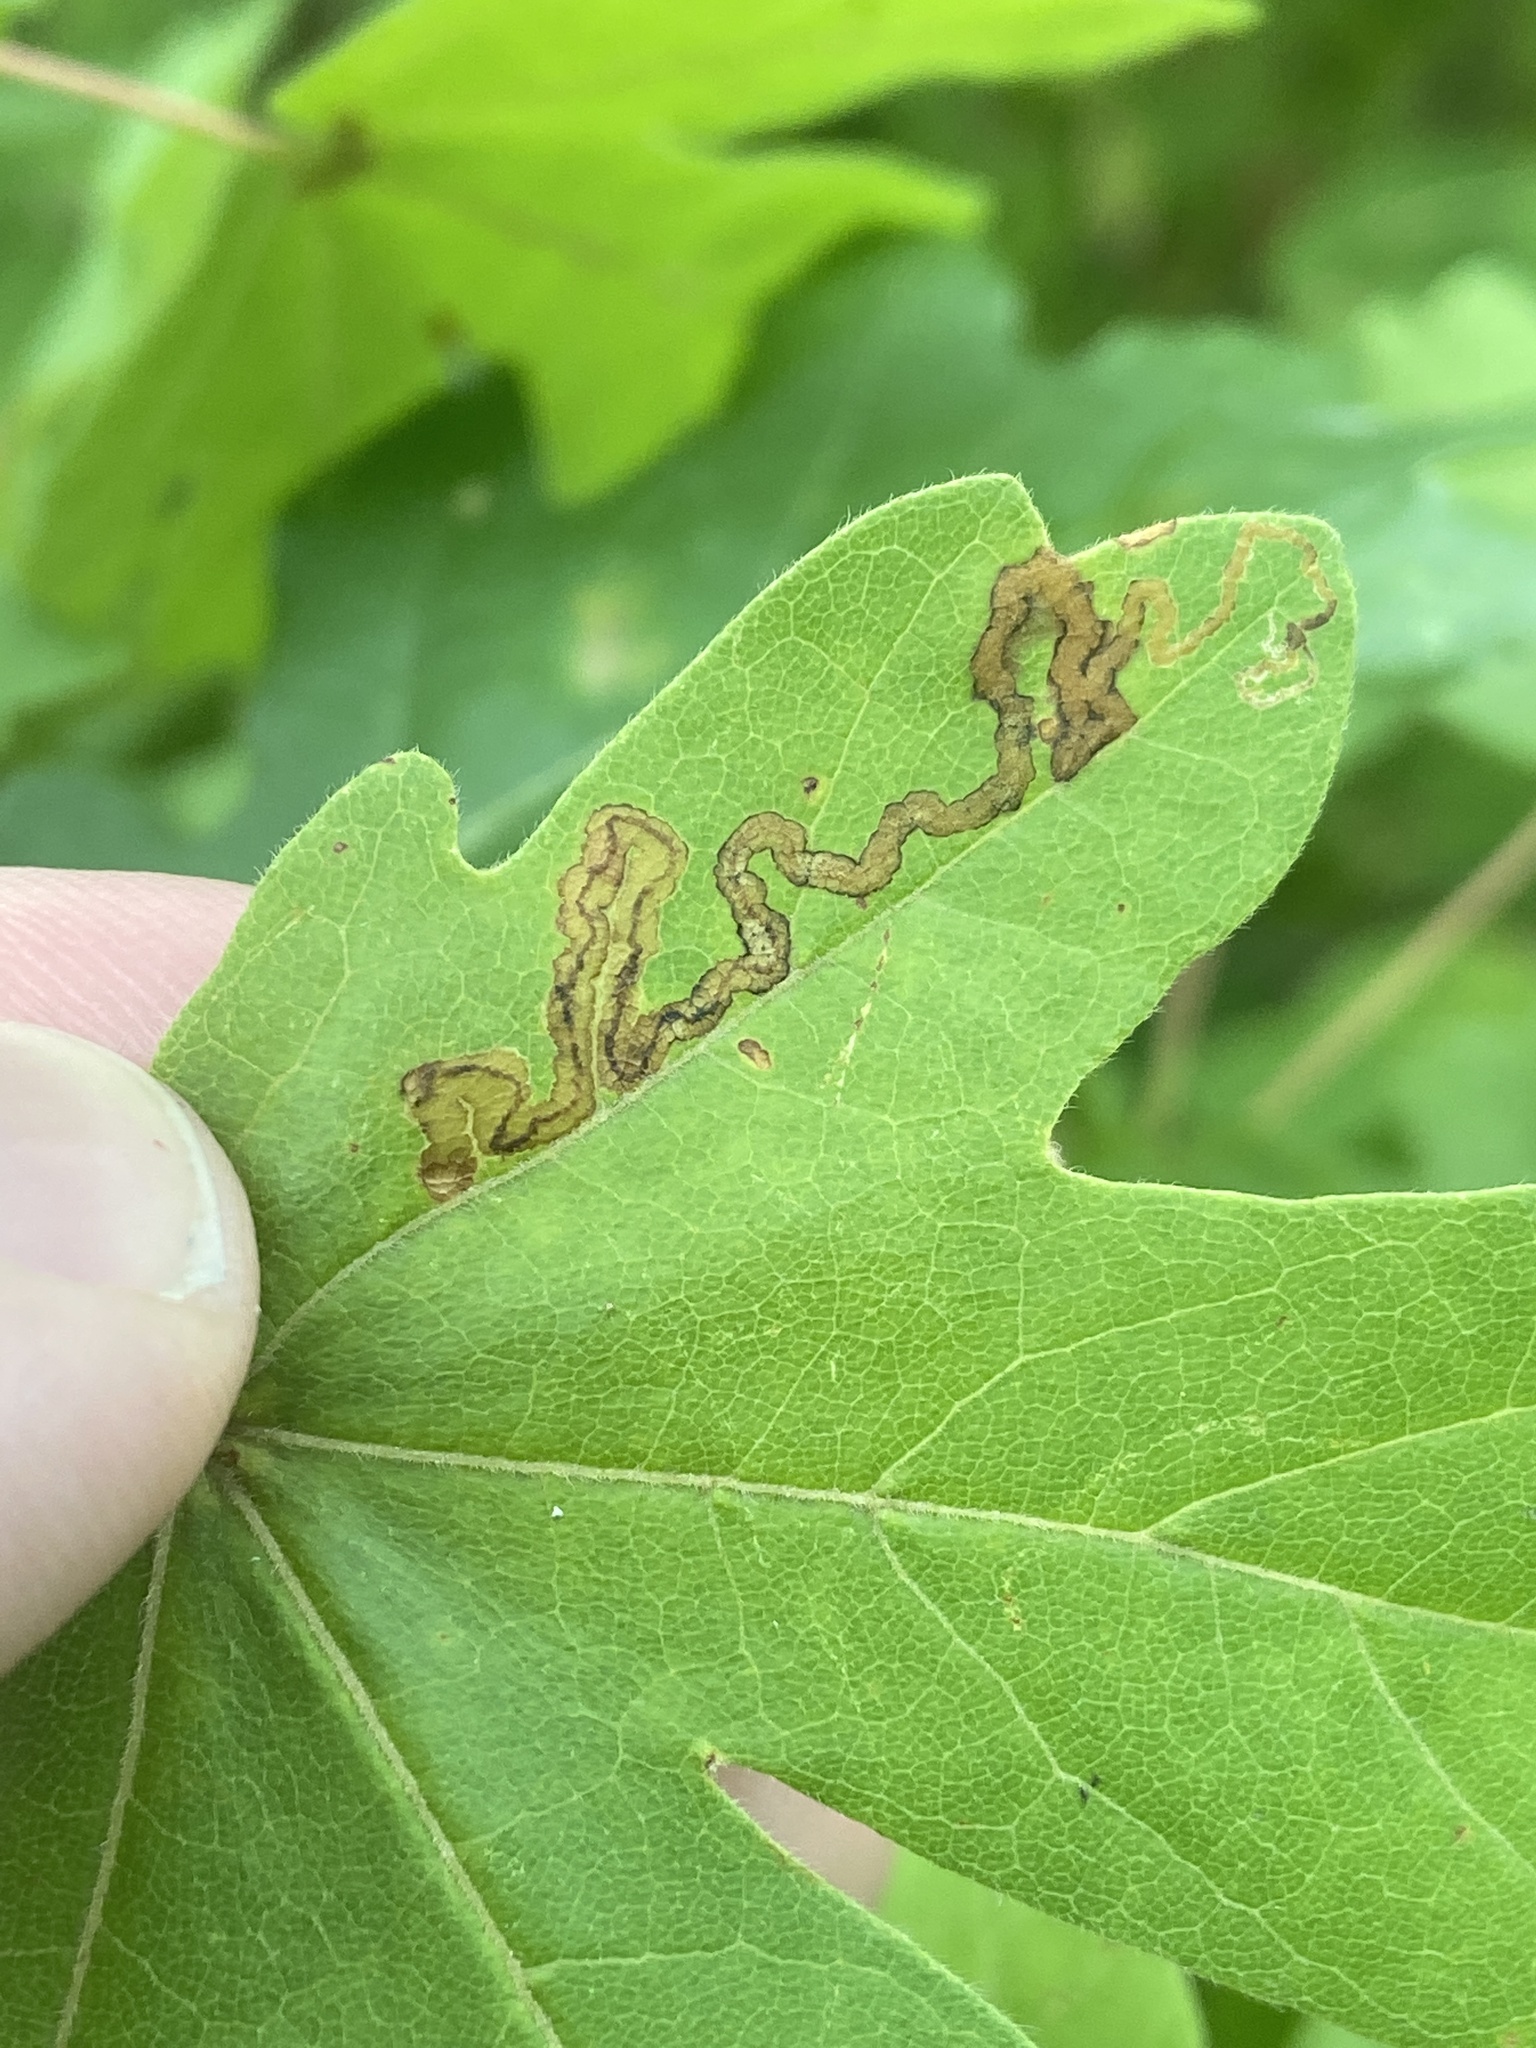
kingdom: Animalia
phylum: Arthropoda
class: Insecta
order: Lepidoptera
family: Nepticulidae
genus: Stigmella
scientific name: Stigmella aceris
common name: Scarce maple pigmy
